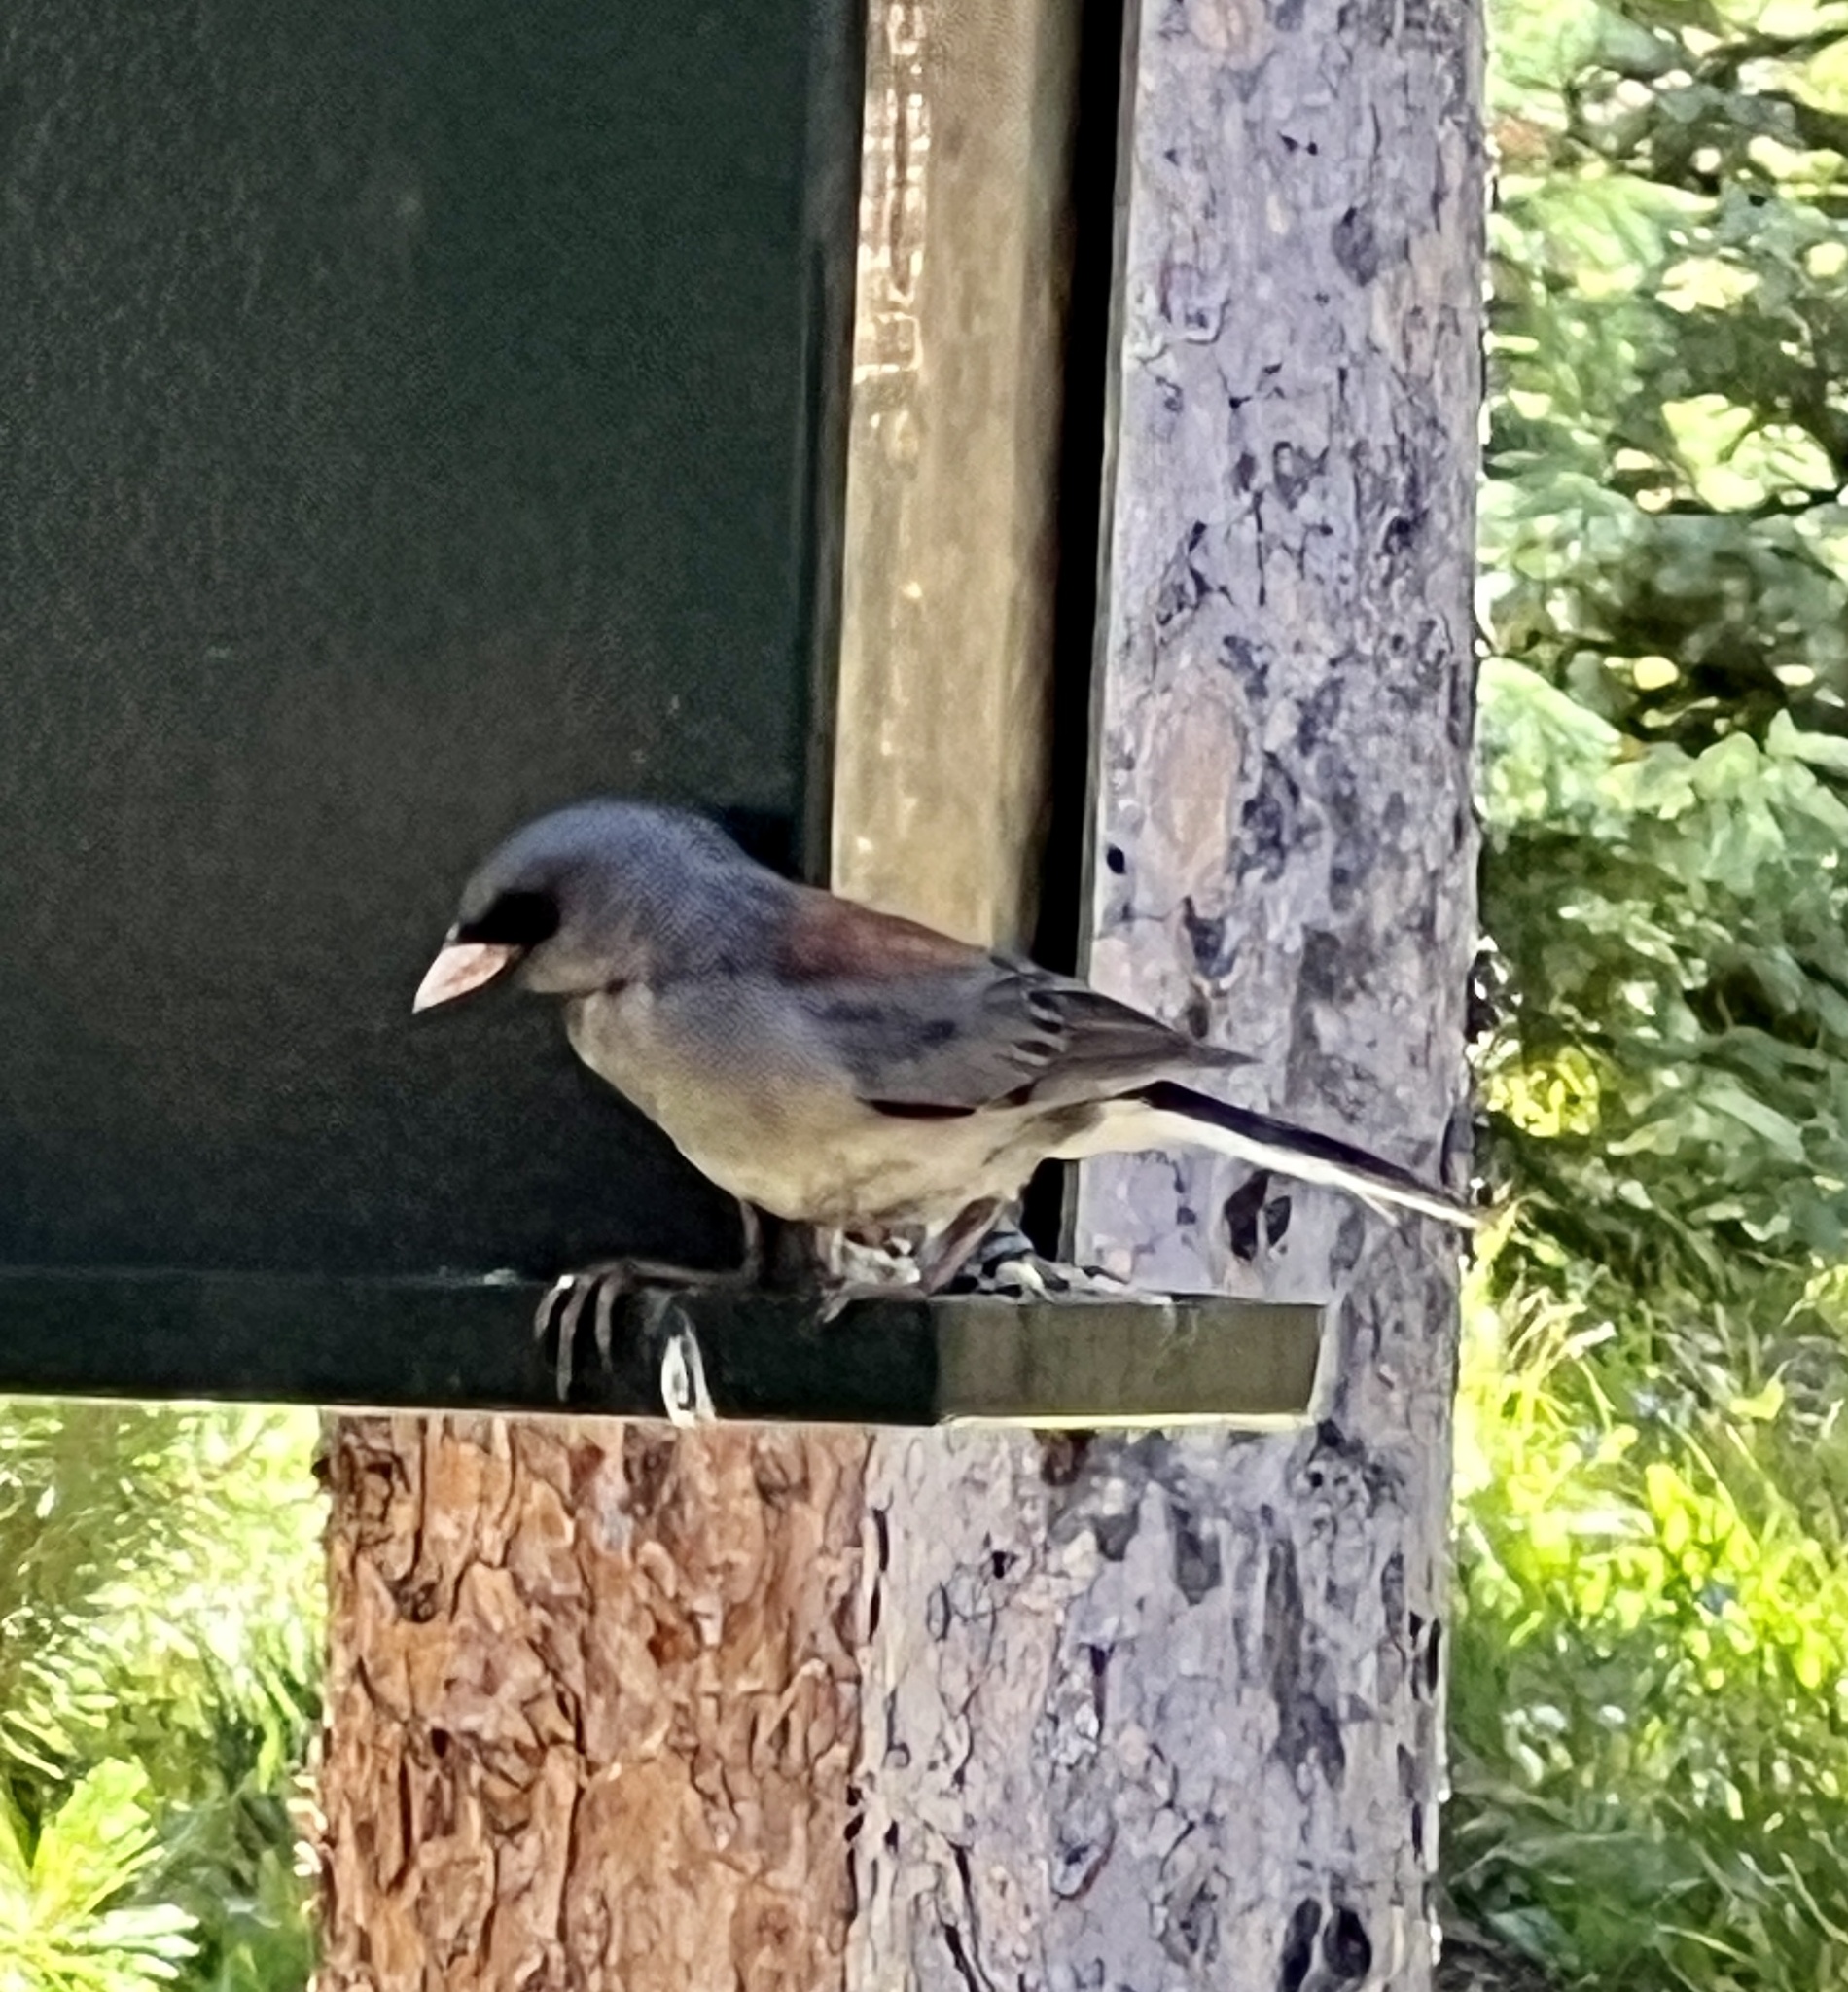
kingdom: Animalia
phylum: Chordata
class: Aves
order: Passeriformes
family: Passerellidae
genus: Junco
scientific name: Junco hyemalis
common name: Dark-eyed junco
